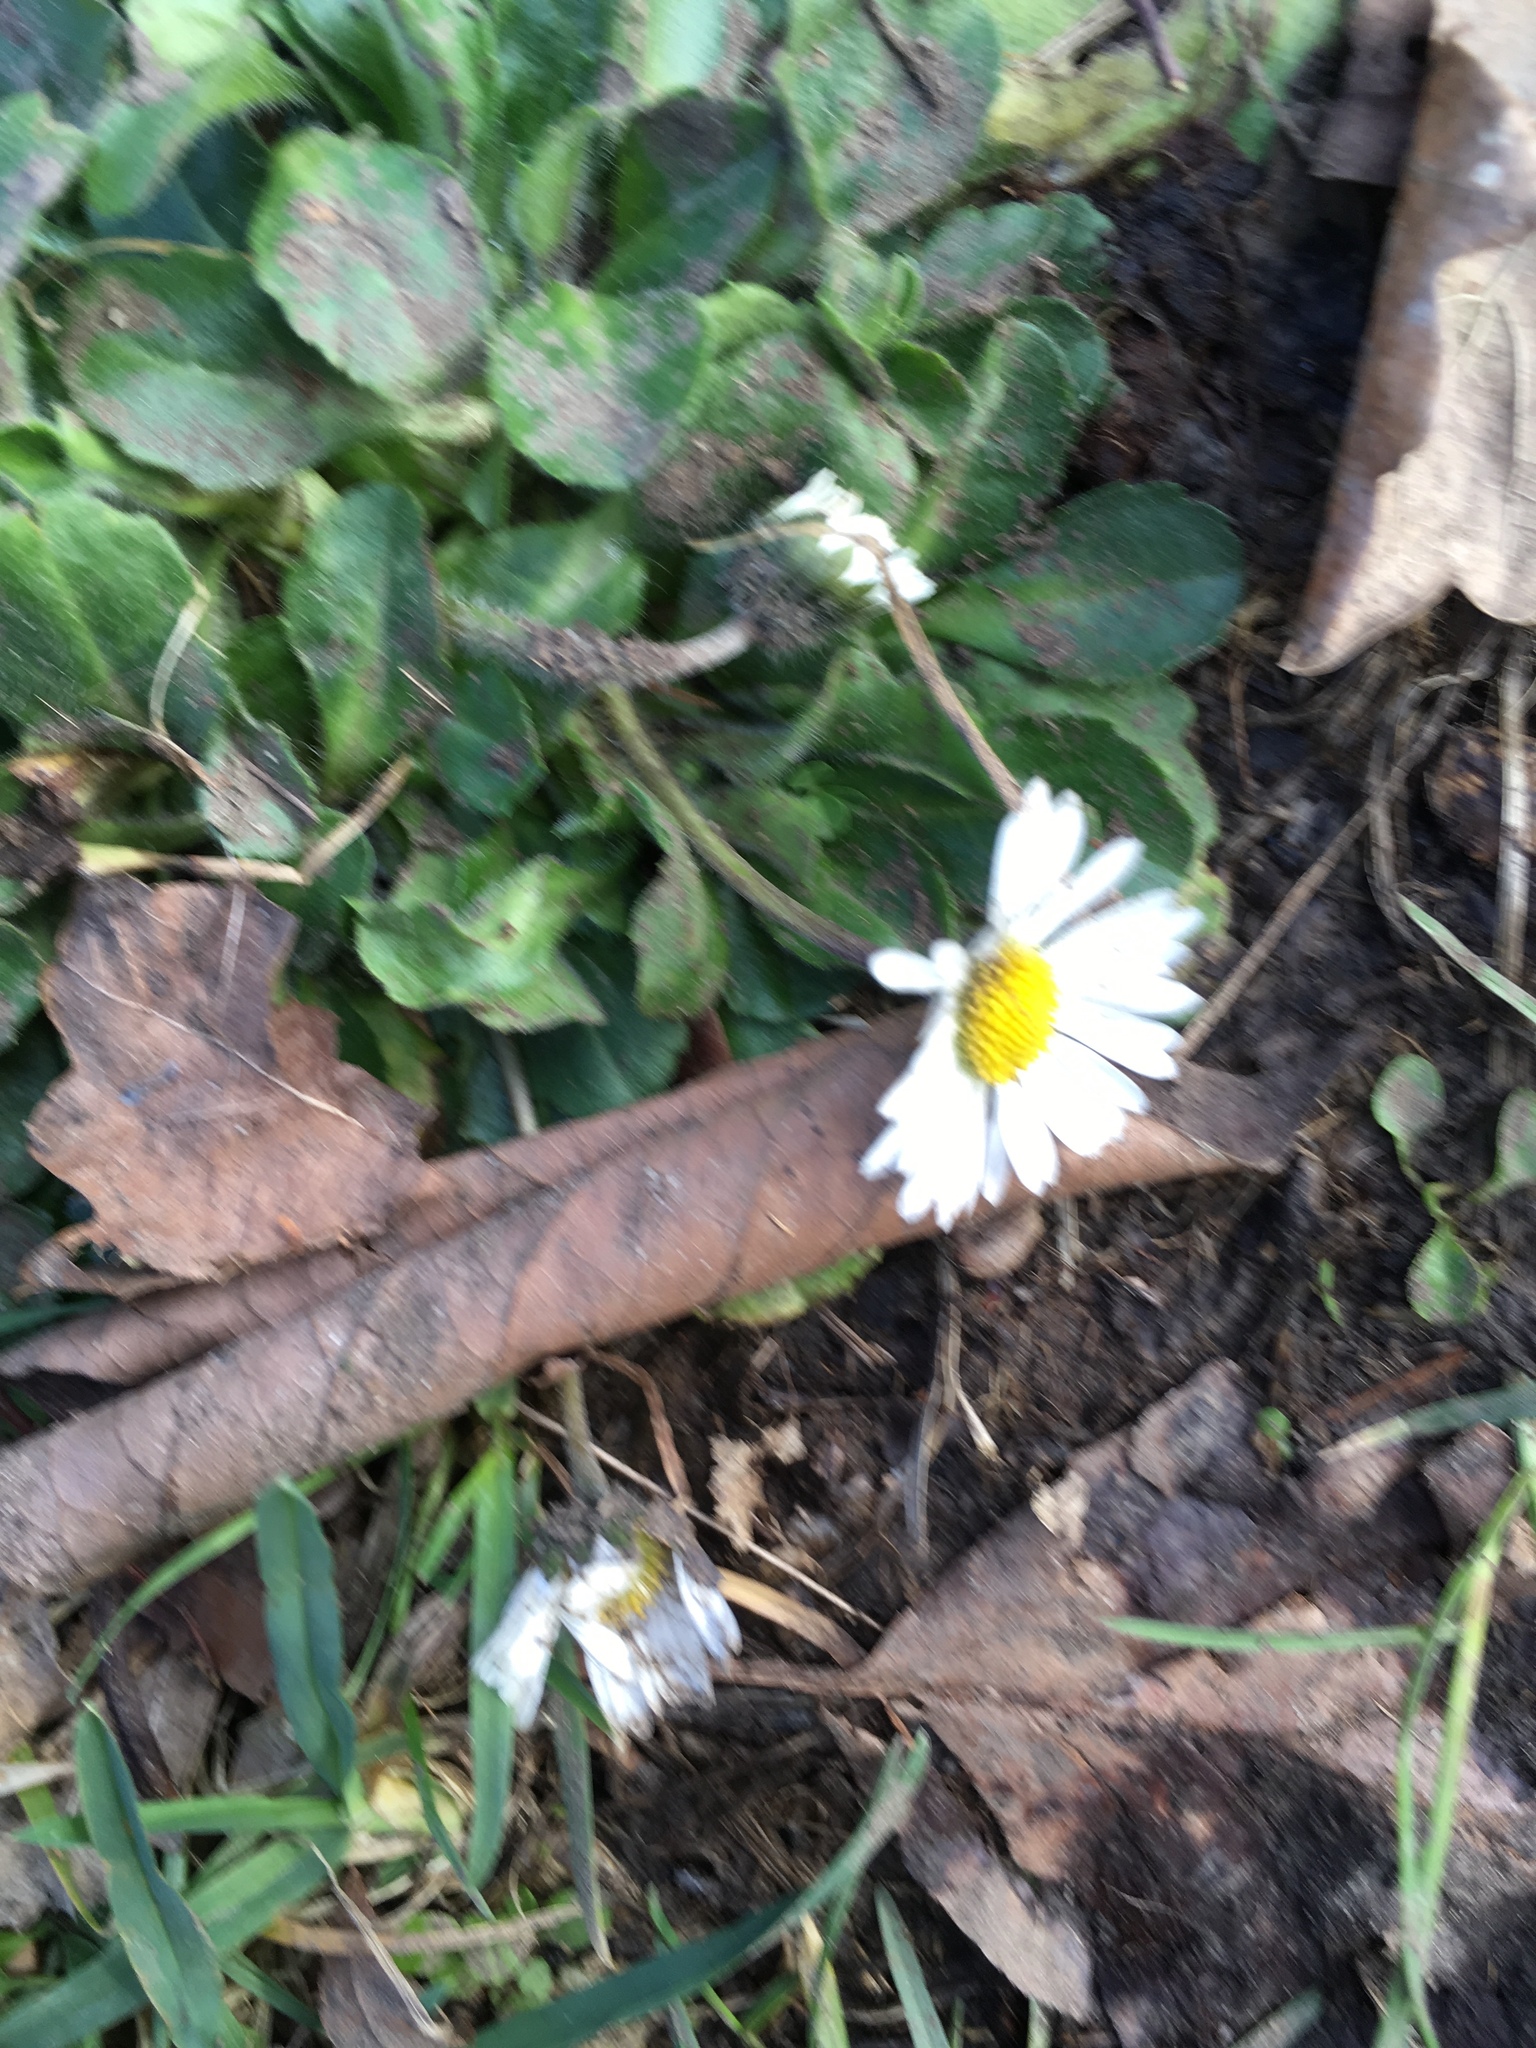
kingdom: Plantae
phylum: Tracheophyta
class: Magnoliopsida
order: Asterales
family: Asteraceae
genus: Bellis
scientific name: Bellis perennis
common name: Lawndaisy
